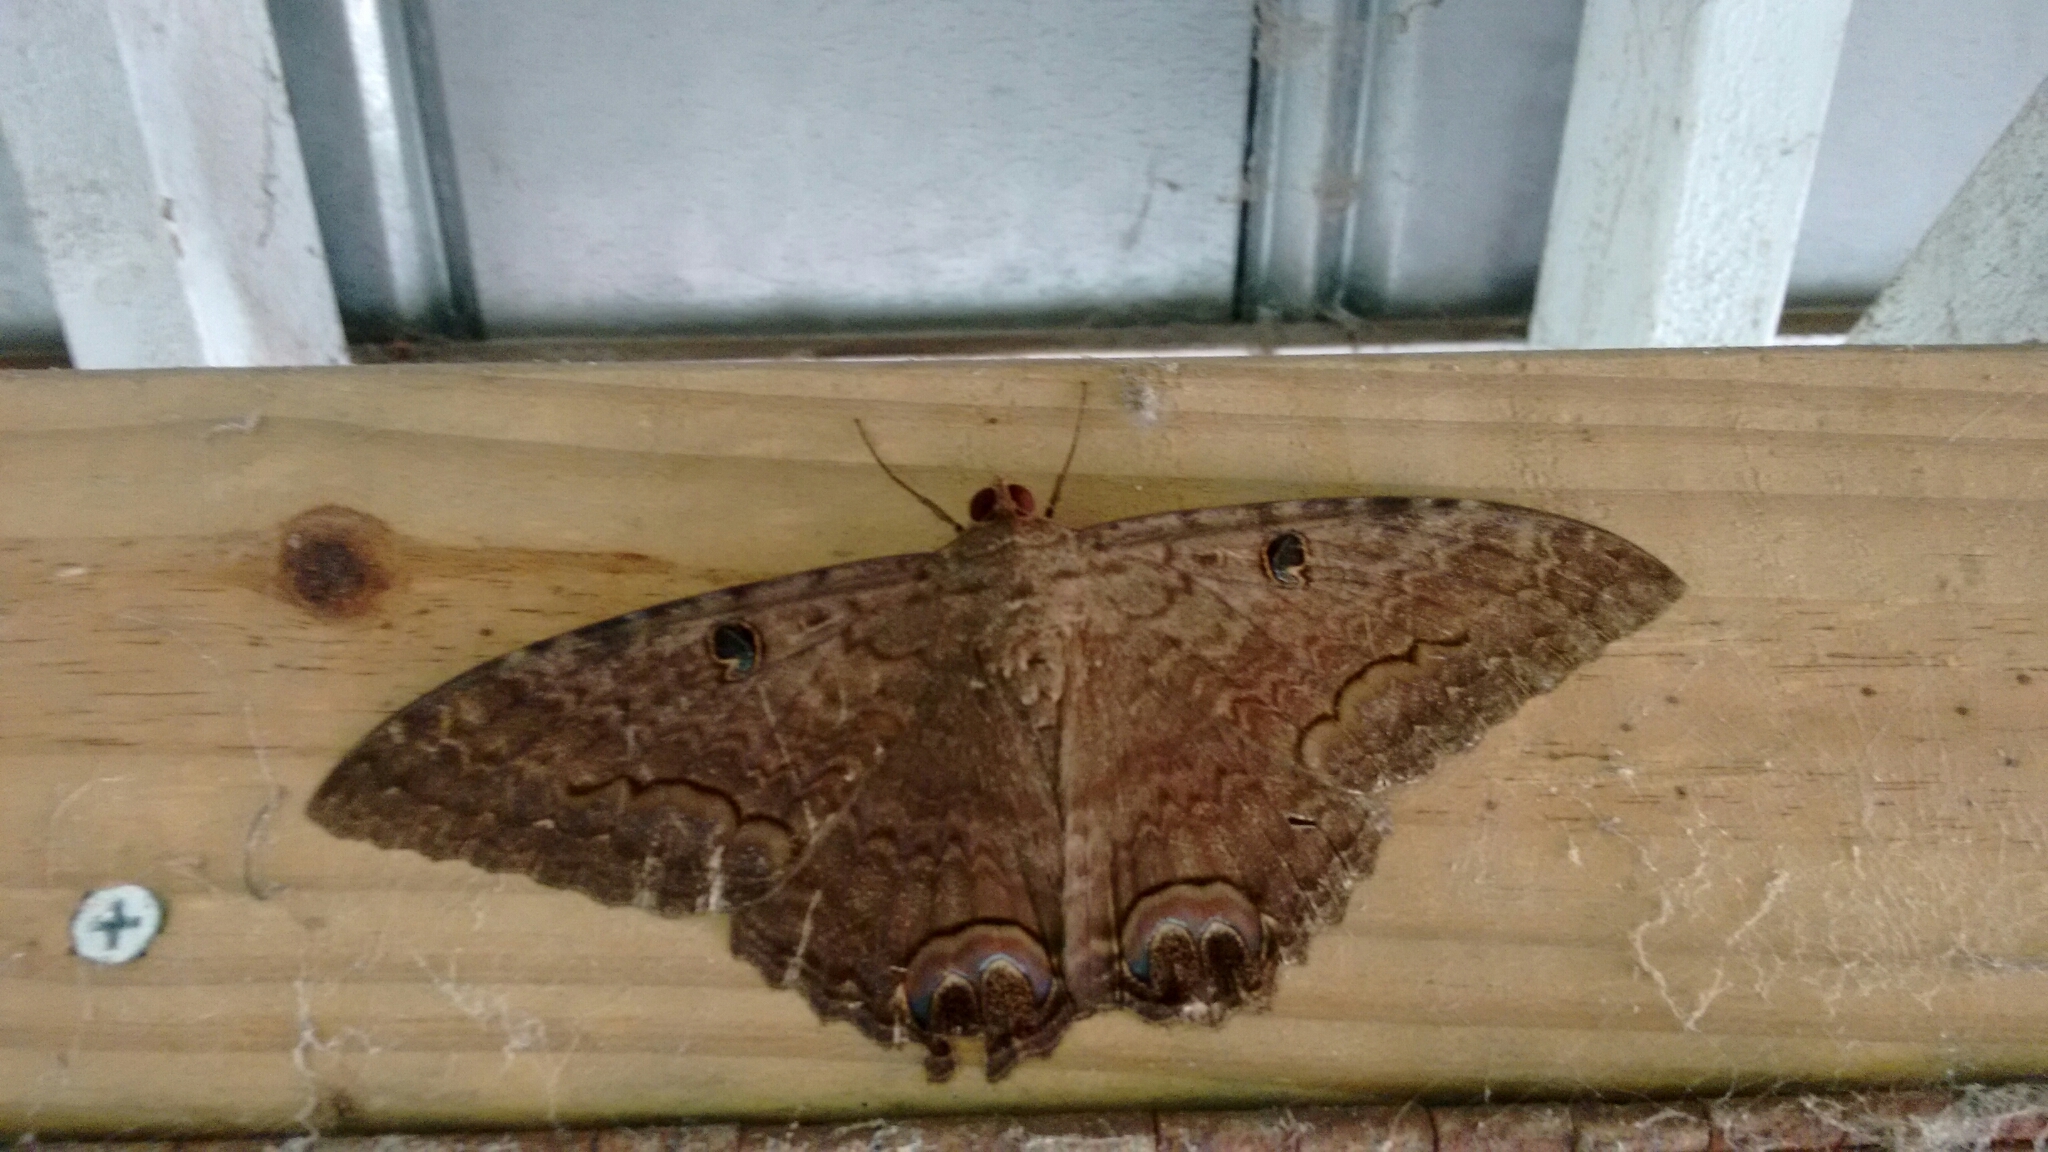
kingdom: Animalia
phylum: Arthropoda
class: Insecta
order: Lepidoptera
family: Erebidae
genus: Ascalapha
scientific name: Ascalapha odorata
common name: Black witch
